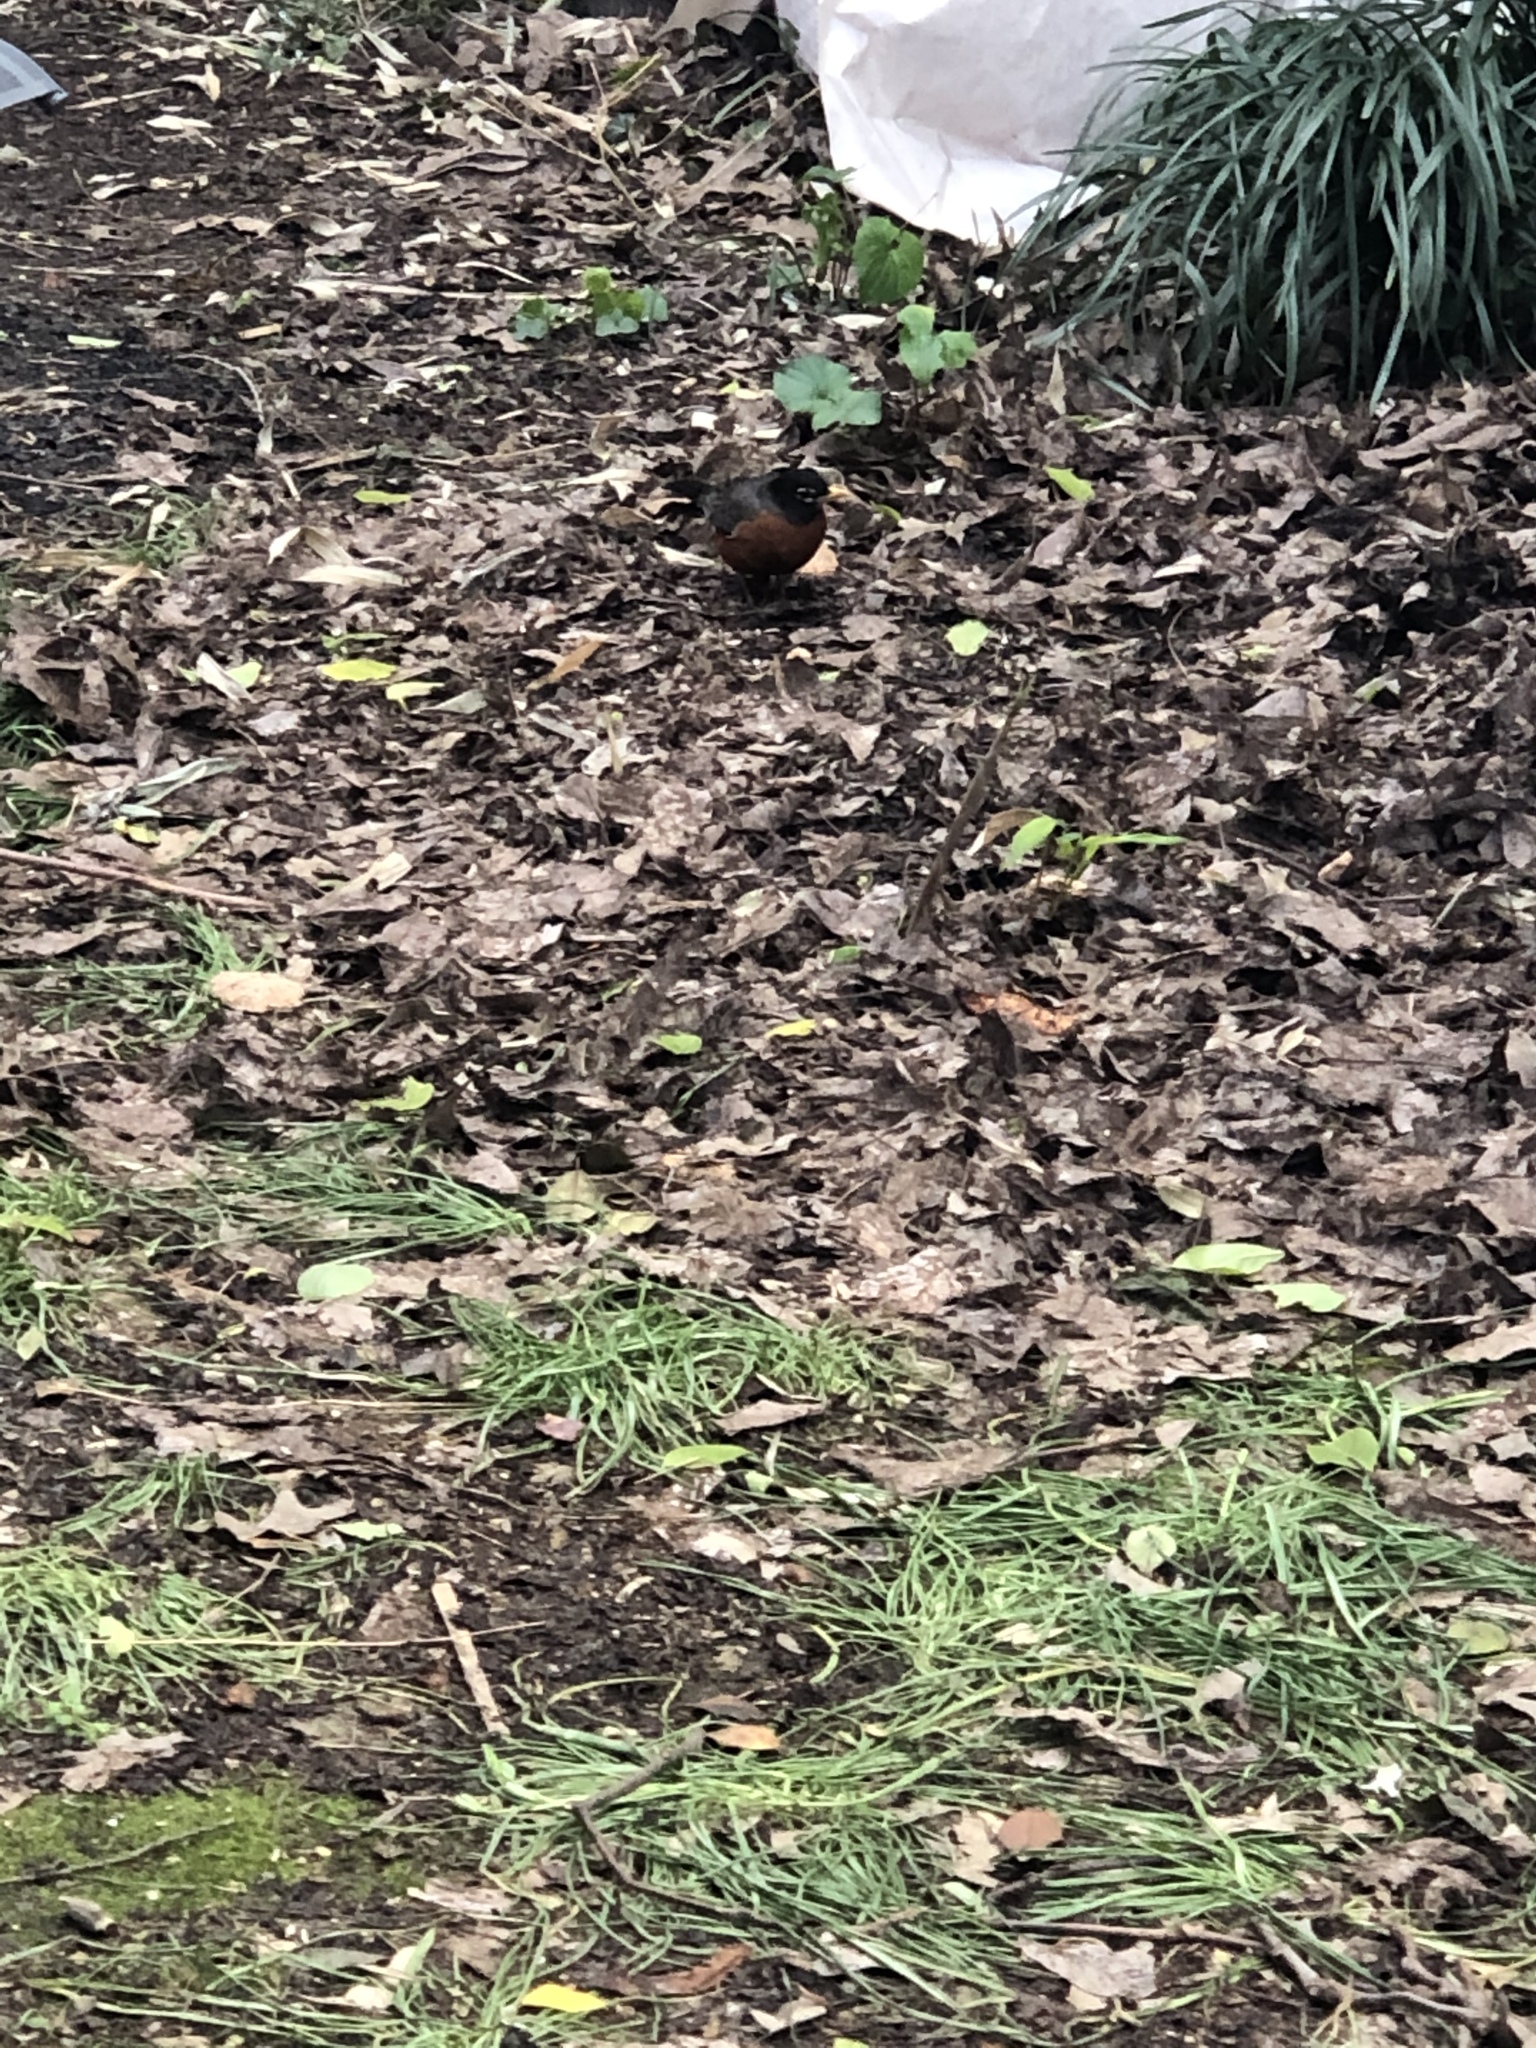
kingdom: Animalia
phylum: Chordata
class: Aves
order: Passeriformes
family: Turdidae
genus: Turdus
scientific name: Turdus migratorius
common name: American robin
